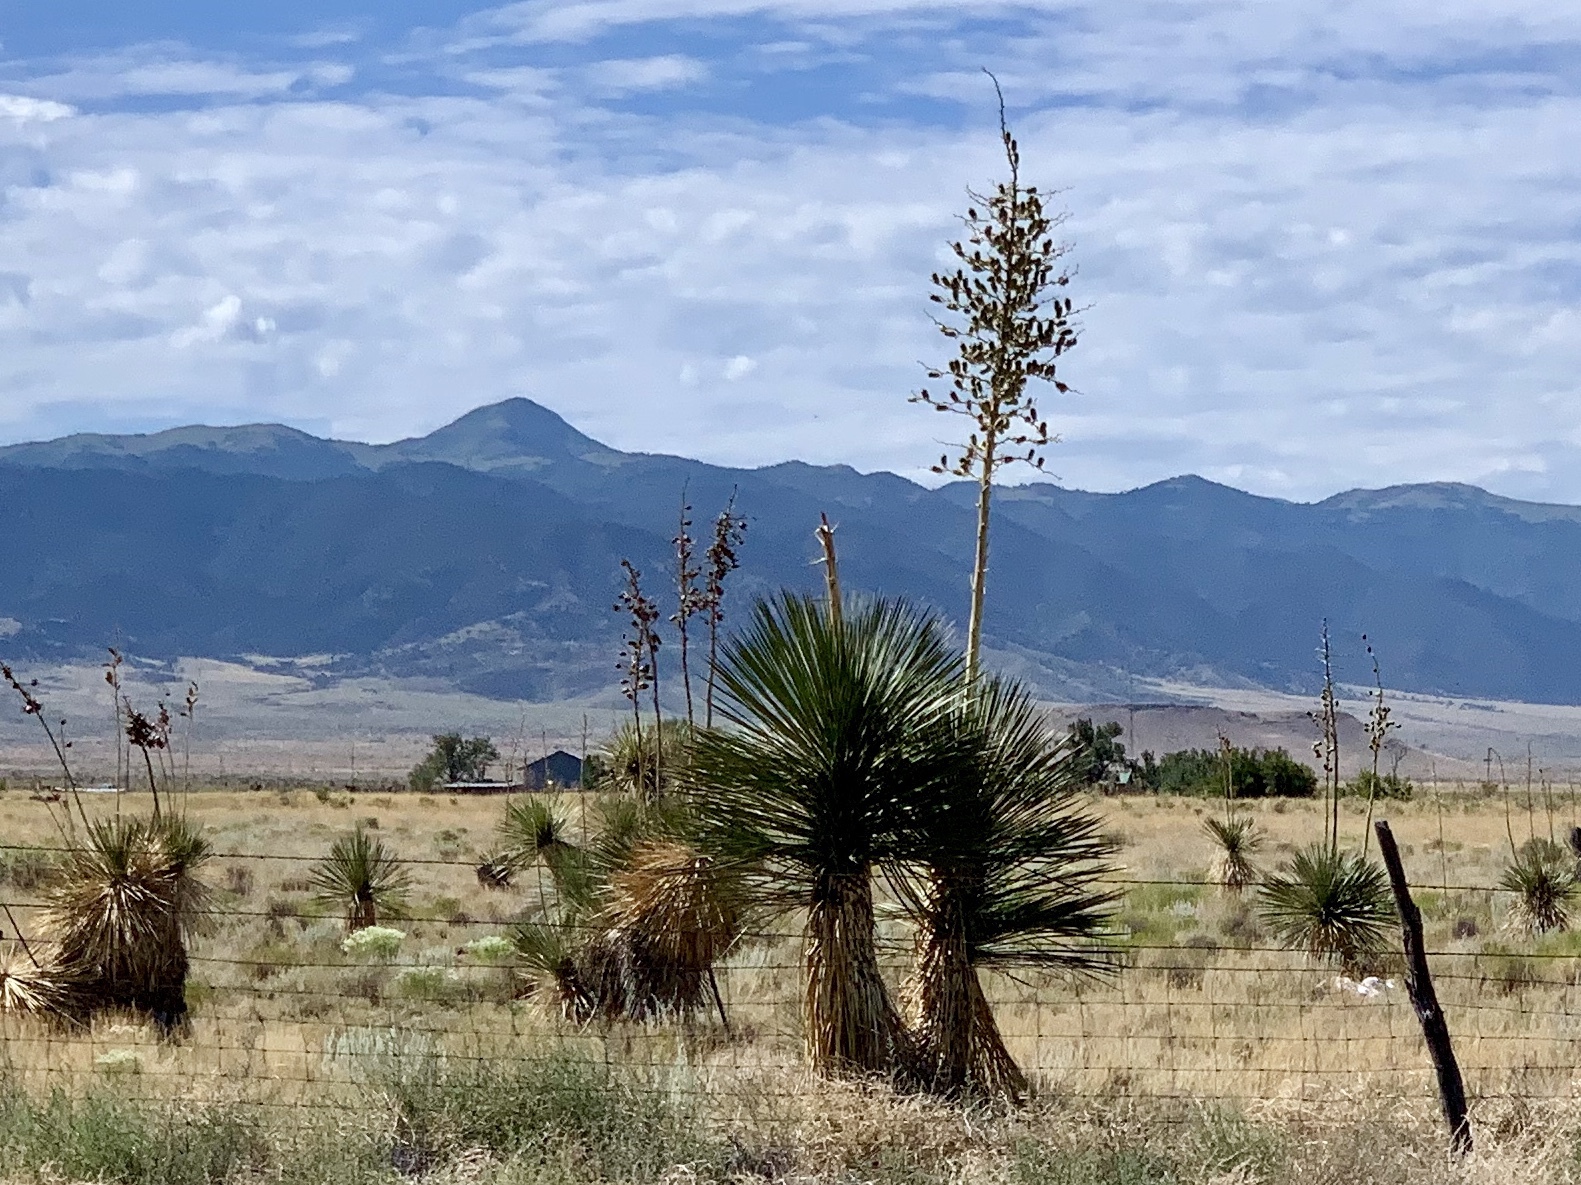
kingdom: Plantae
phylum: Tracheophyta
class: Liliopsida
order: Asparagales
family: Asparagaceae
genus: Yucca
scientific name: Yucca elata
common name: Palmella
